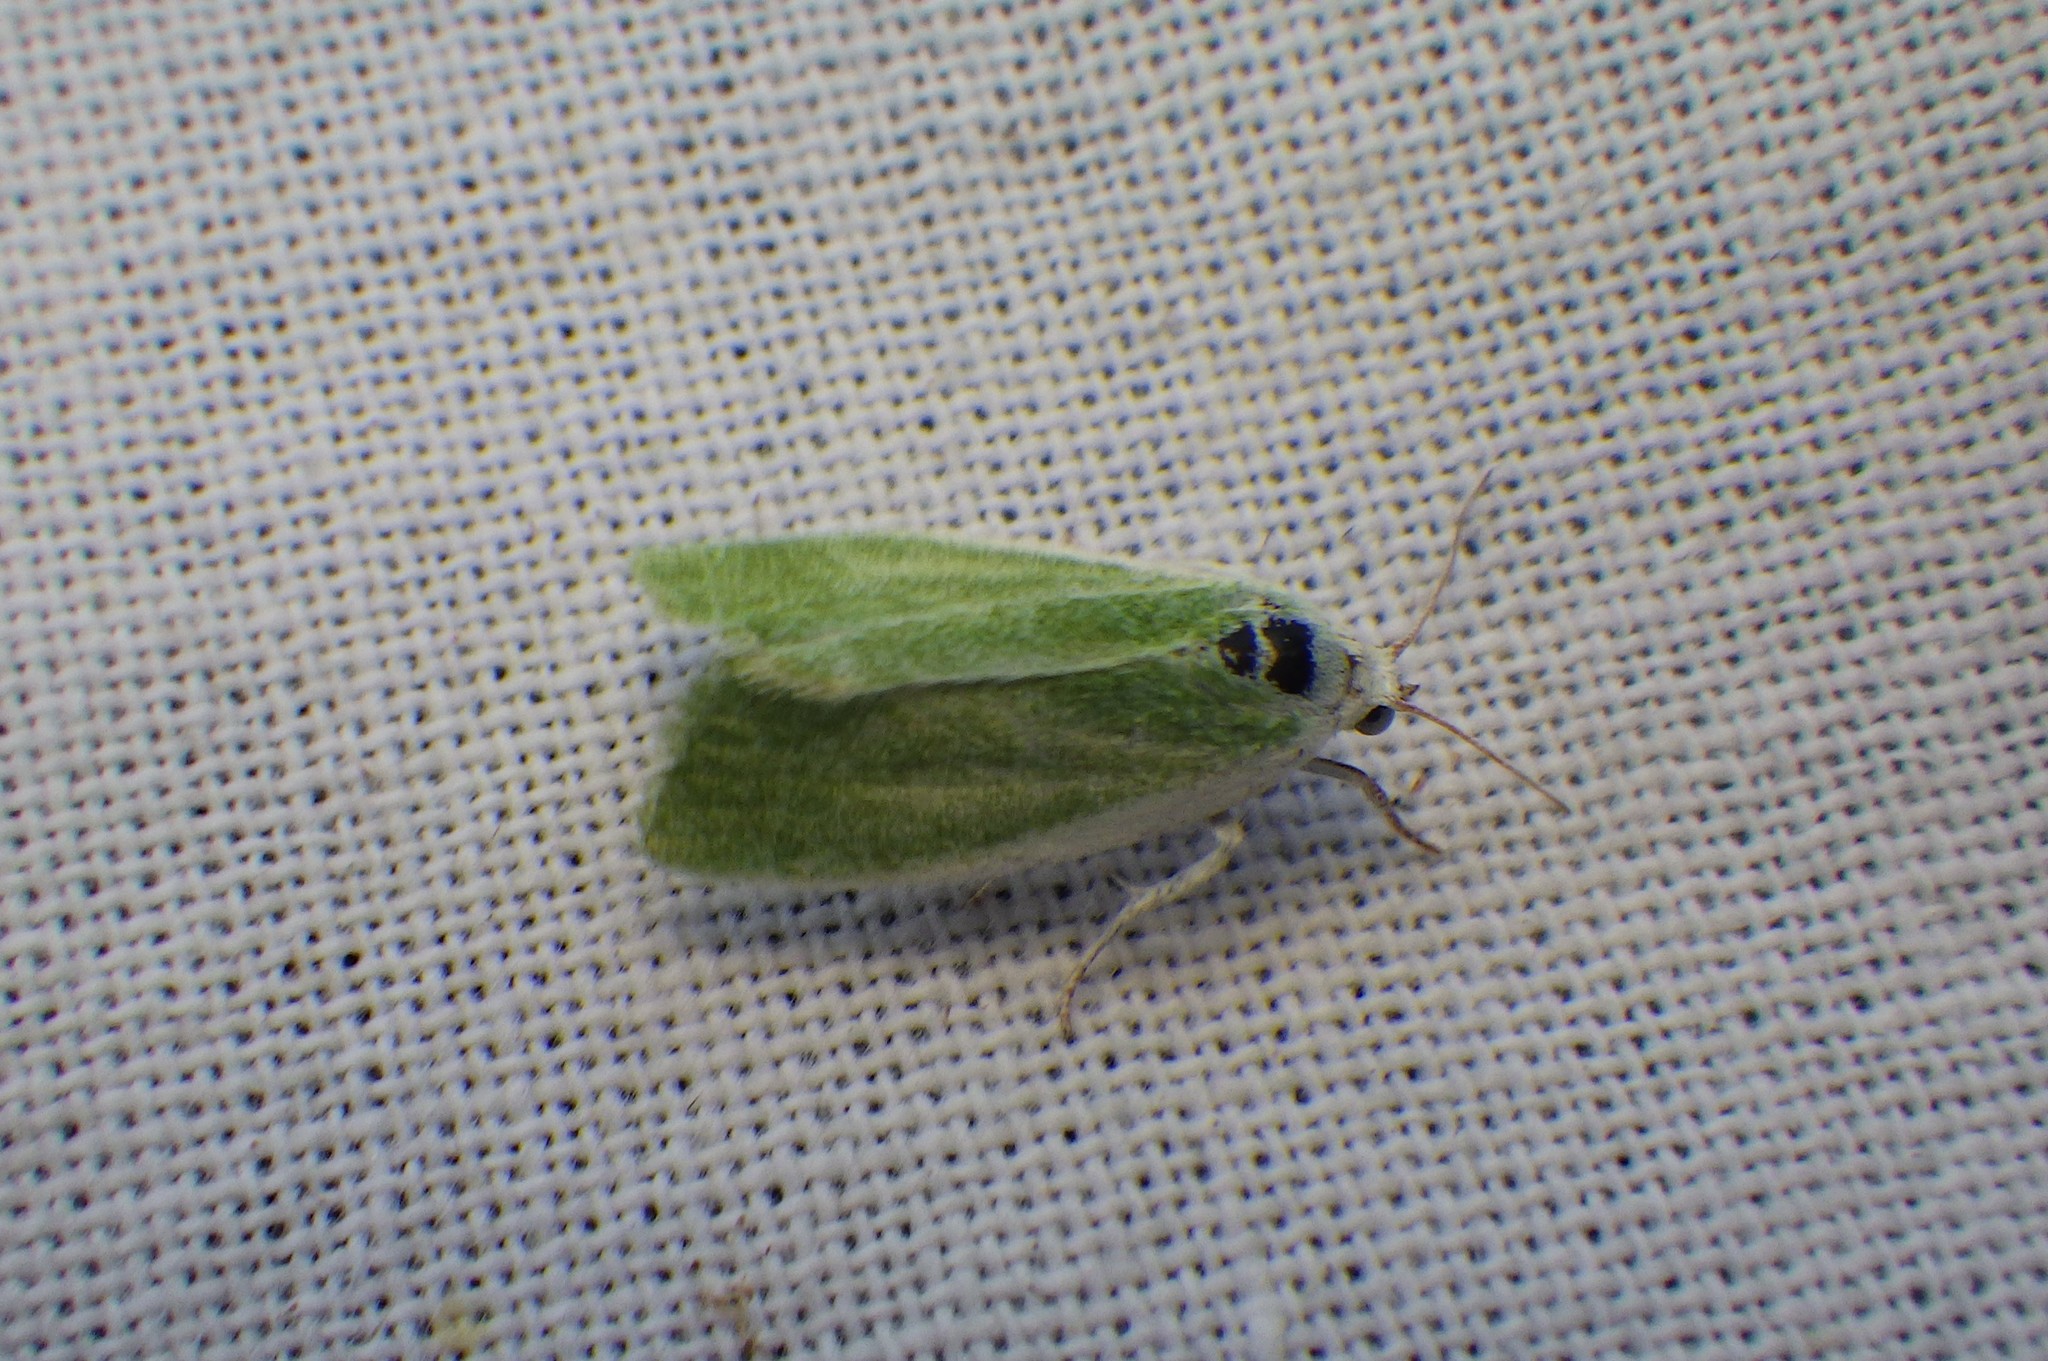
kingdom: Animalia
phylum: Arthropoda
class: Insecta
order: Lepidoptera
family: Nolidae
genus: Earias
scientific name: Earias clorana
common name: Cream-bordered green pea
